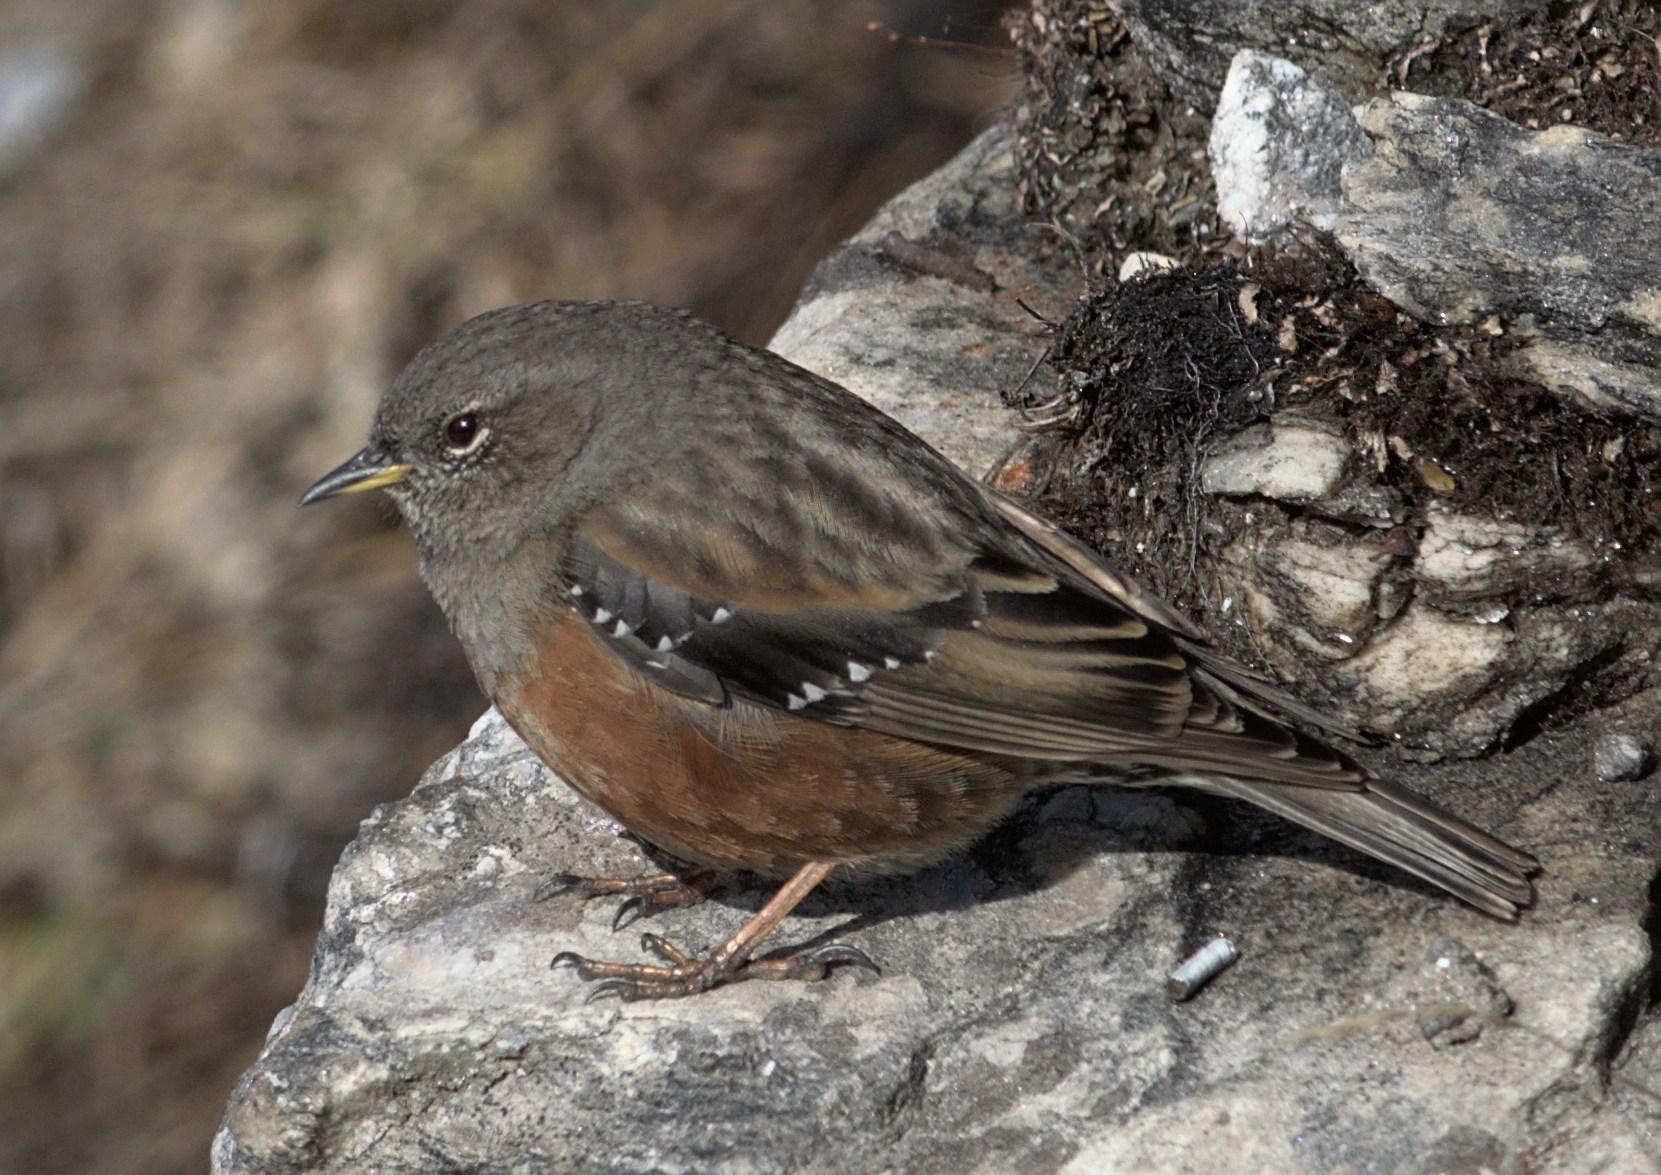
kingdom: Animalia
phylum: Chordata
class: Aves
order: Passeriformes
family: Prunellidae
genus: Prunella
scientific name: Prunella collaris
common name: Alpine accentor
